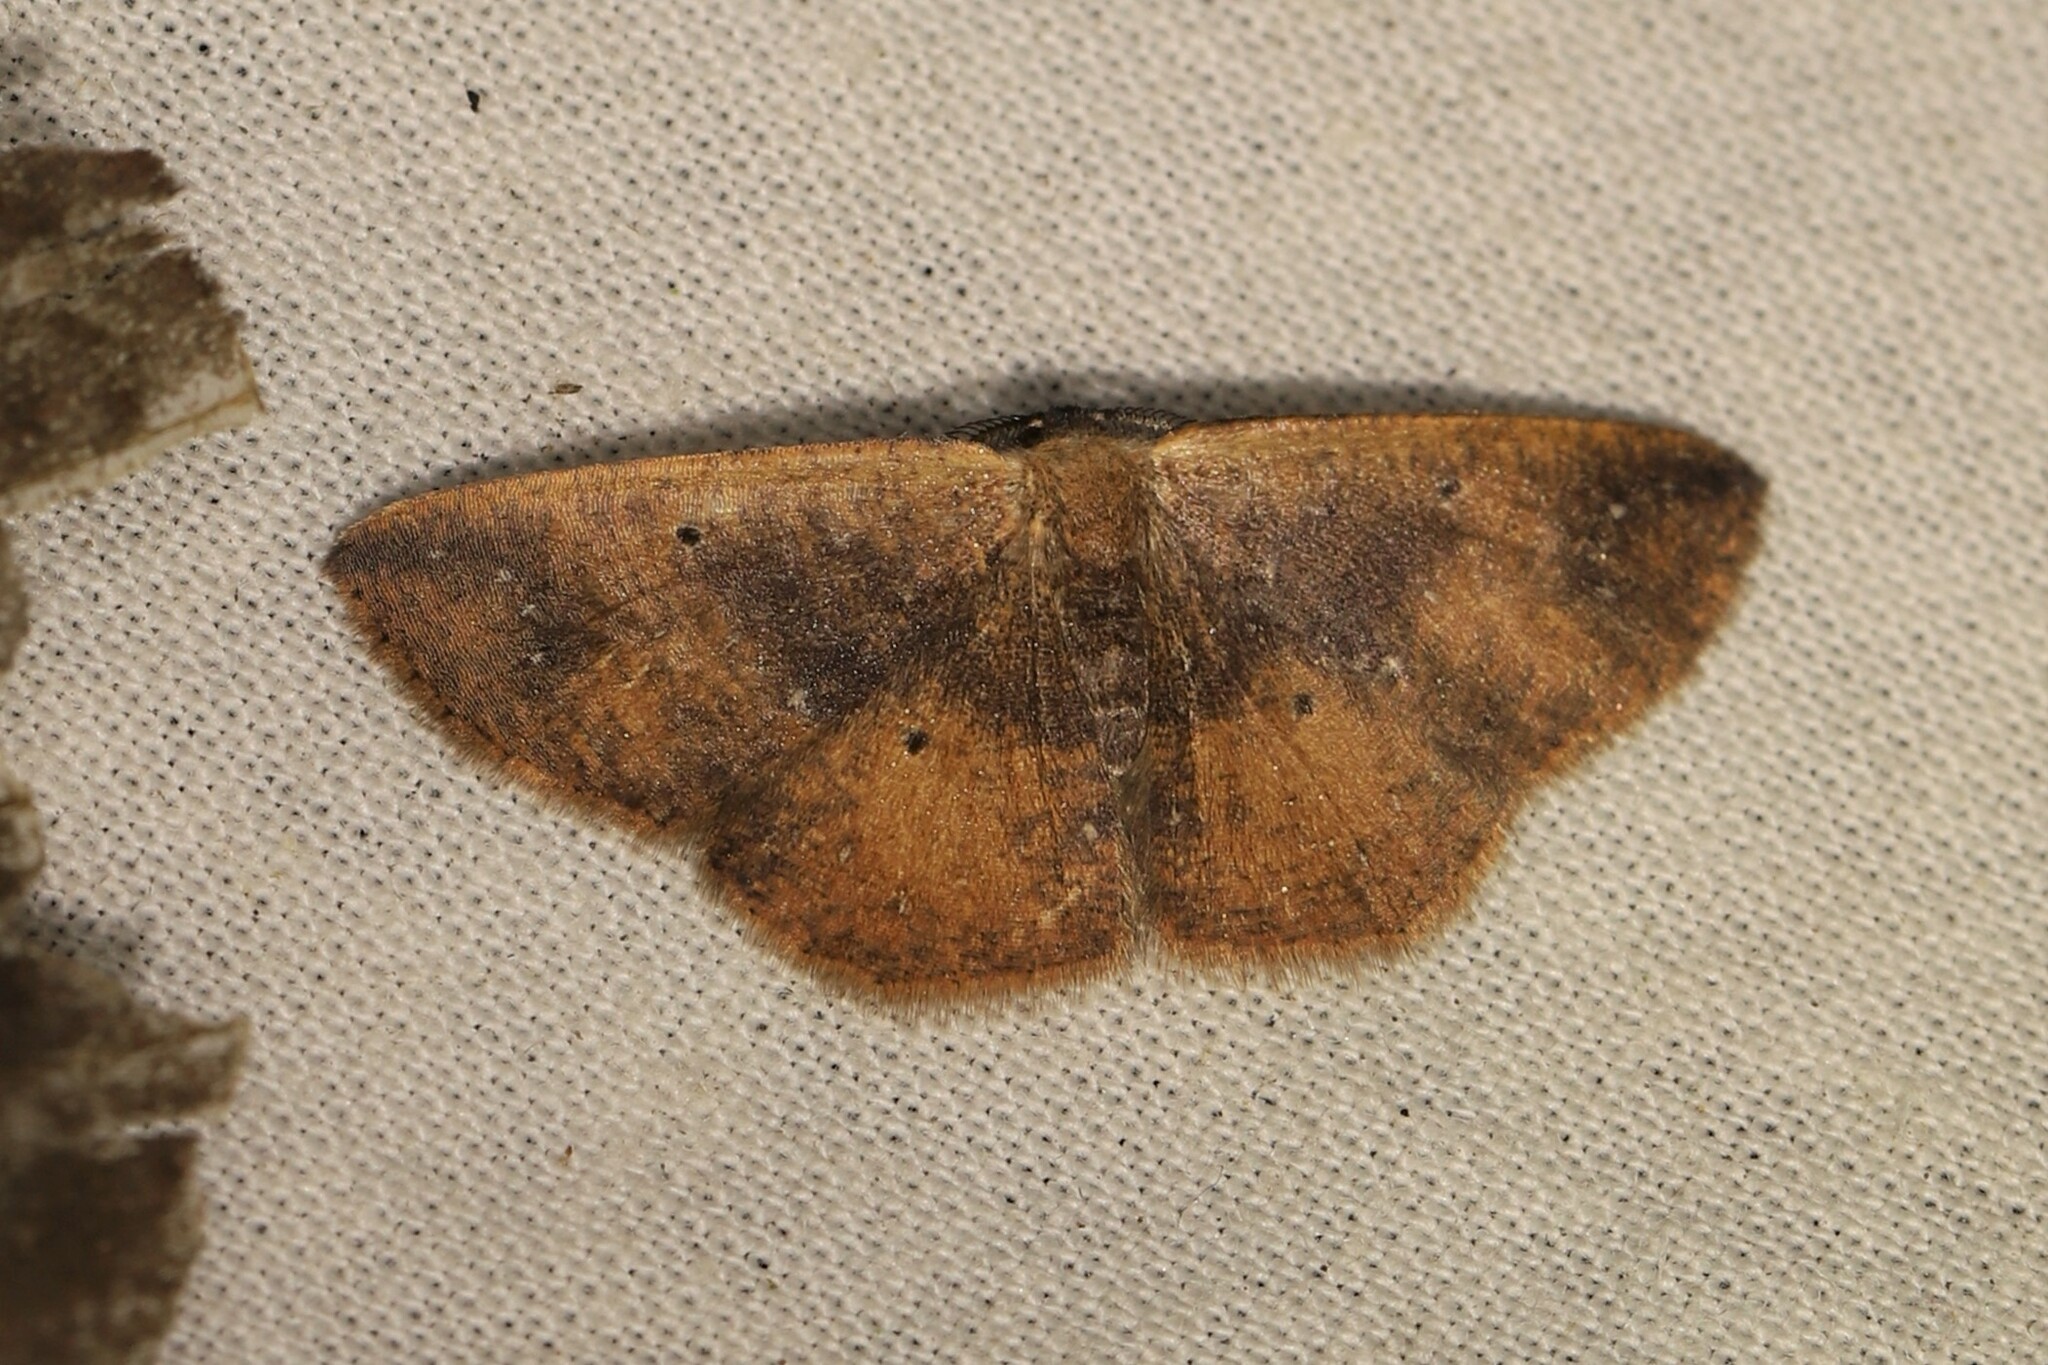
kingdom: Animalia
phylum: Arthropoda
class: Insecta
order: Lepidoptera
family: Geometridae
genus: Ilexia
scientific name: Ilexia purpurea
